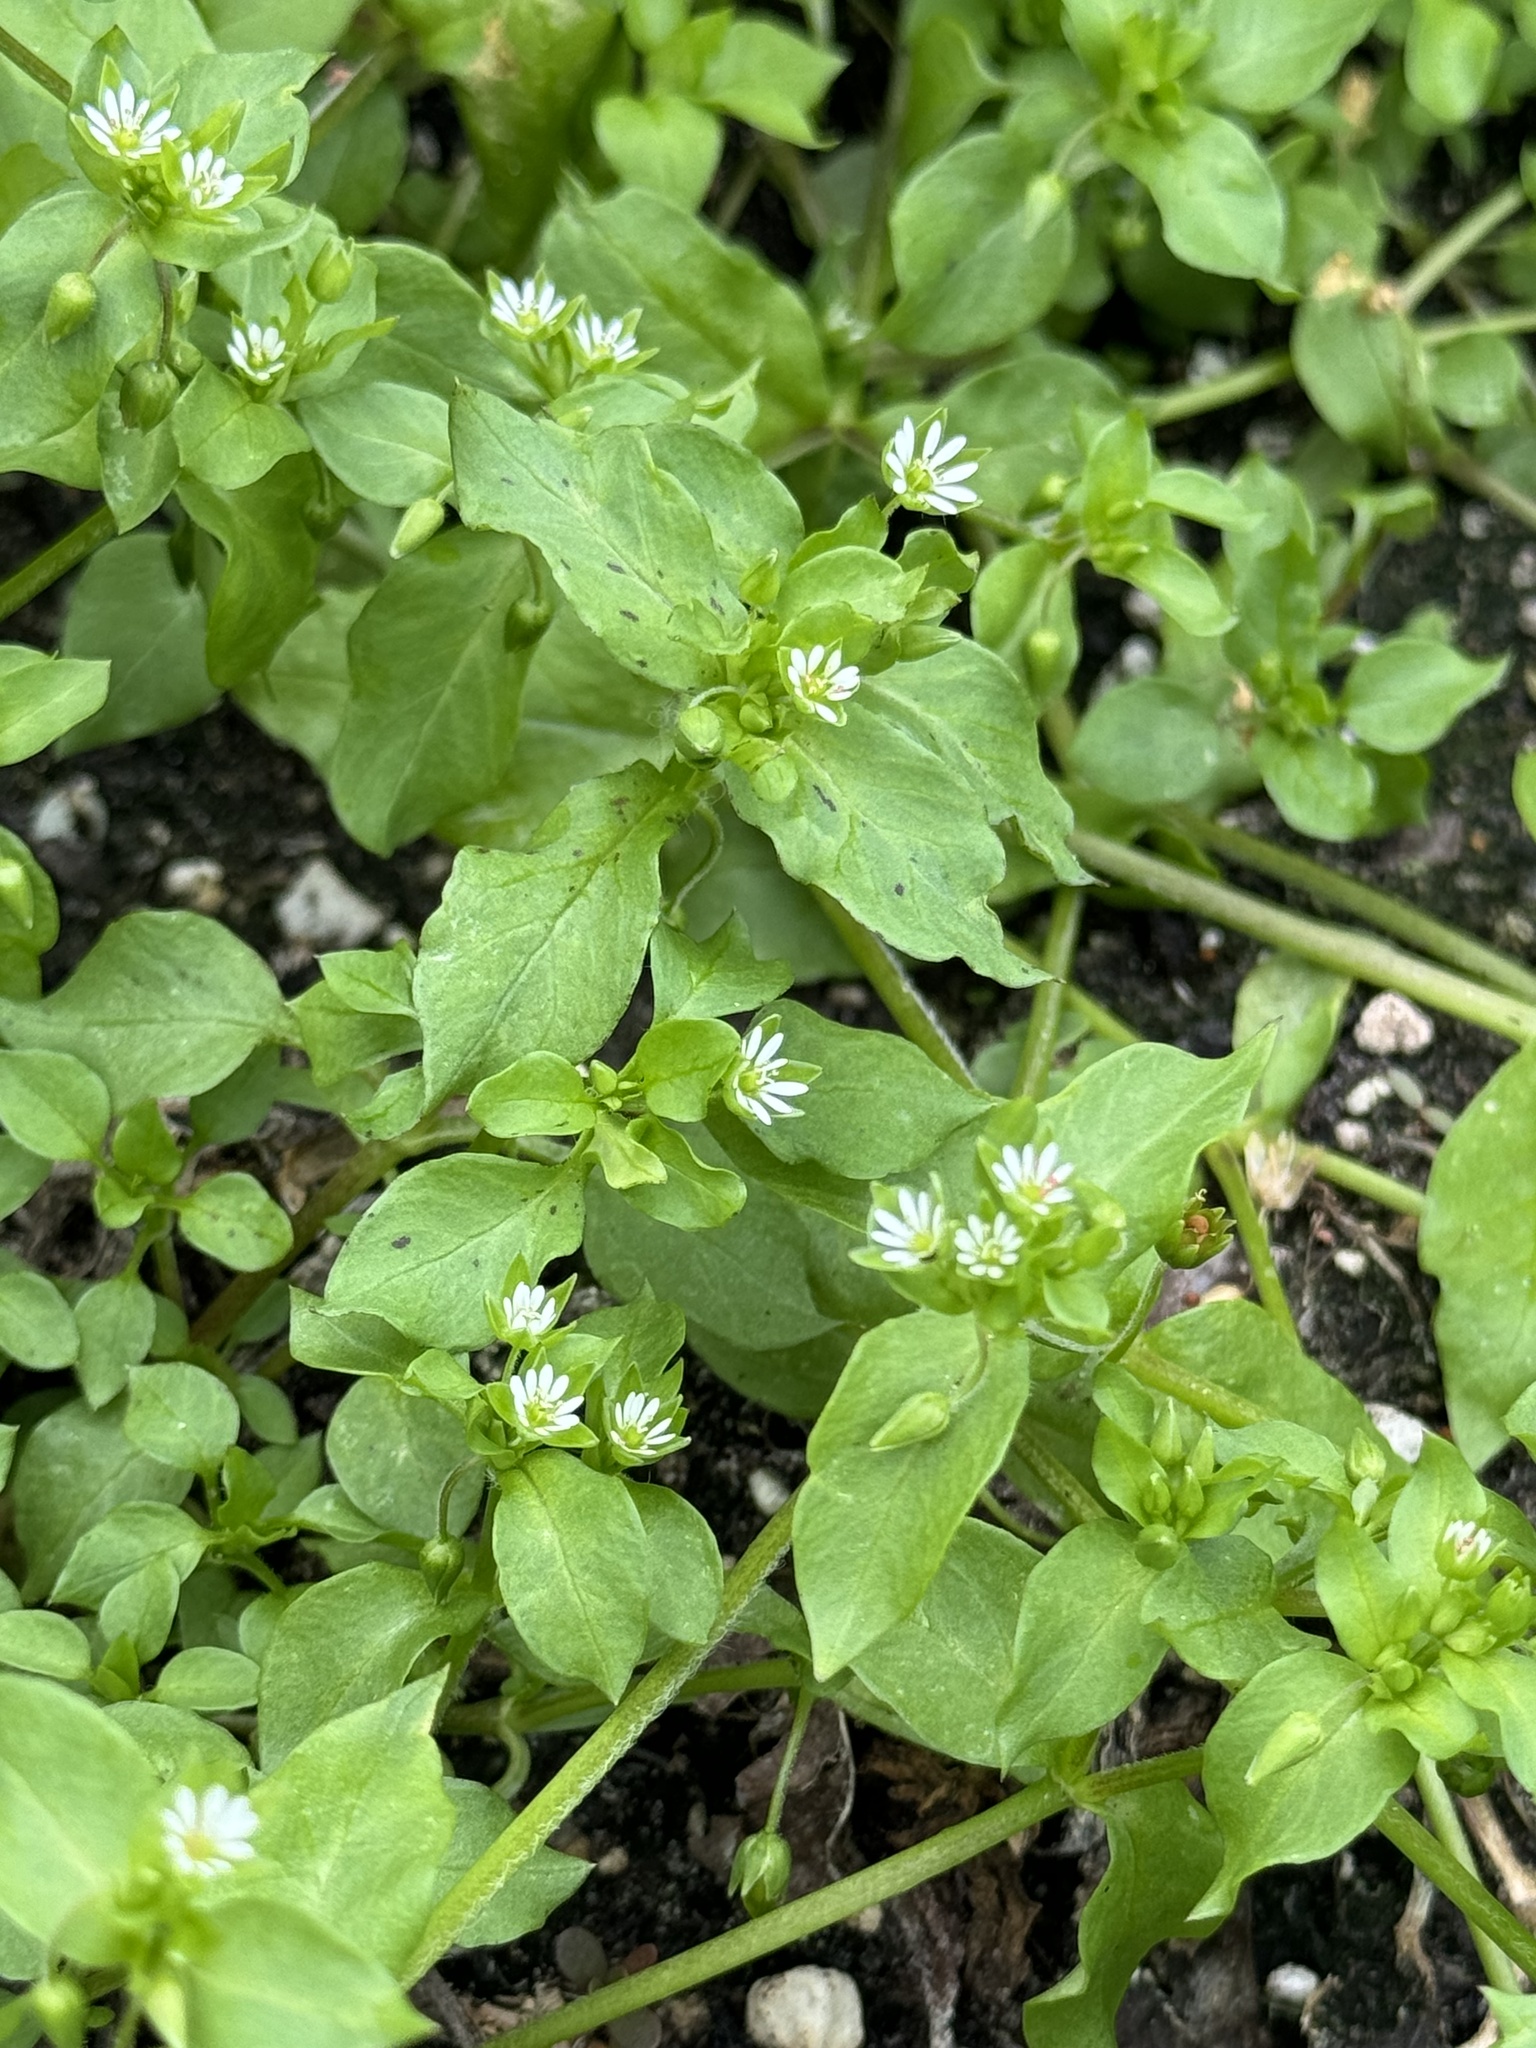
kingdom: Plantae
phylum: Tracheophyta
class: Magnoliopsida
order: Caryophyllales
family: Caryophyllaceae
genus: Stellaria
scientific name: Stellaria media
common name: Common chickweed
